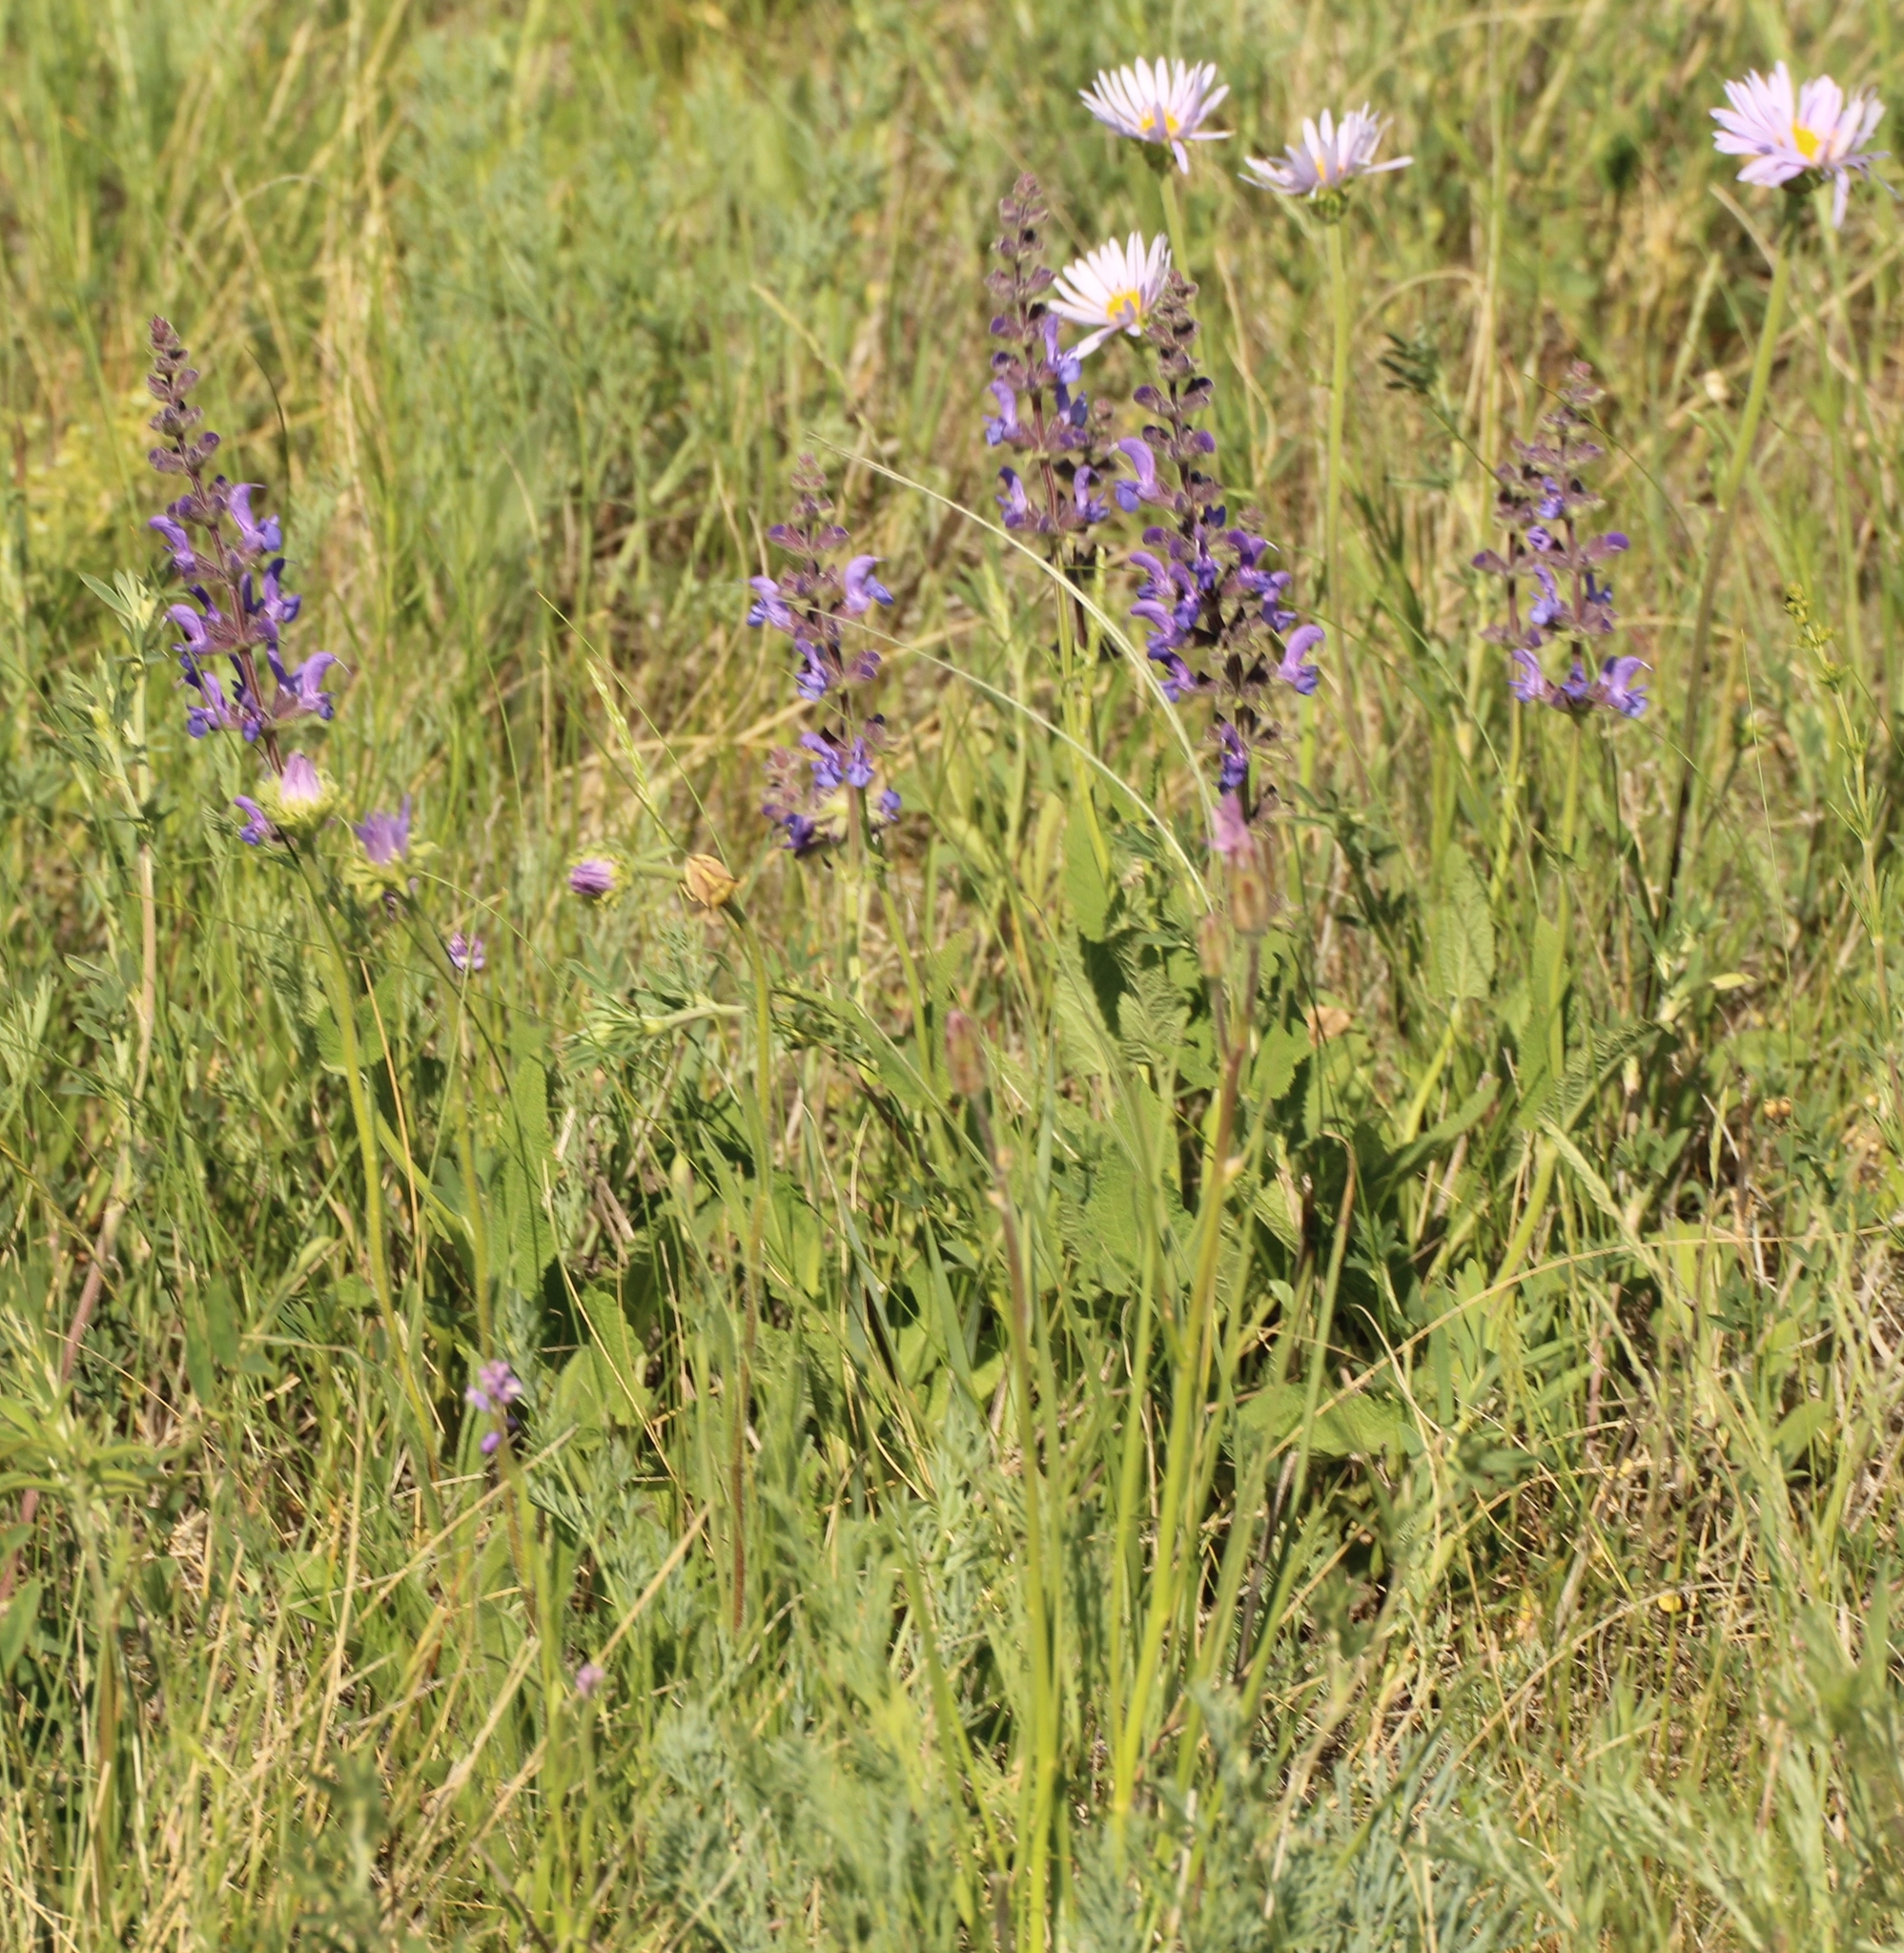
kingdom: Plantae
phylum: Tracheophyta
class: Magnoliopsida
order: Lamiales
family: Lamiaceae
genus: Salvia
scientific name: Salvia dumetorum
